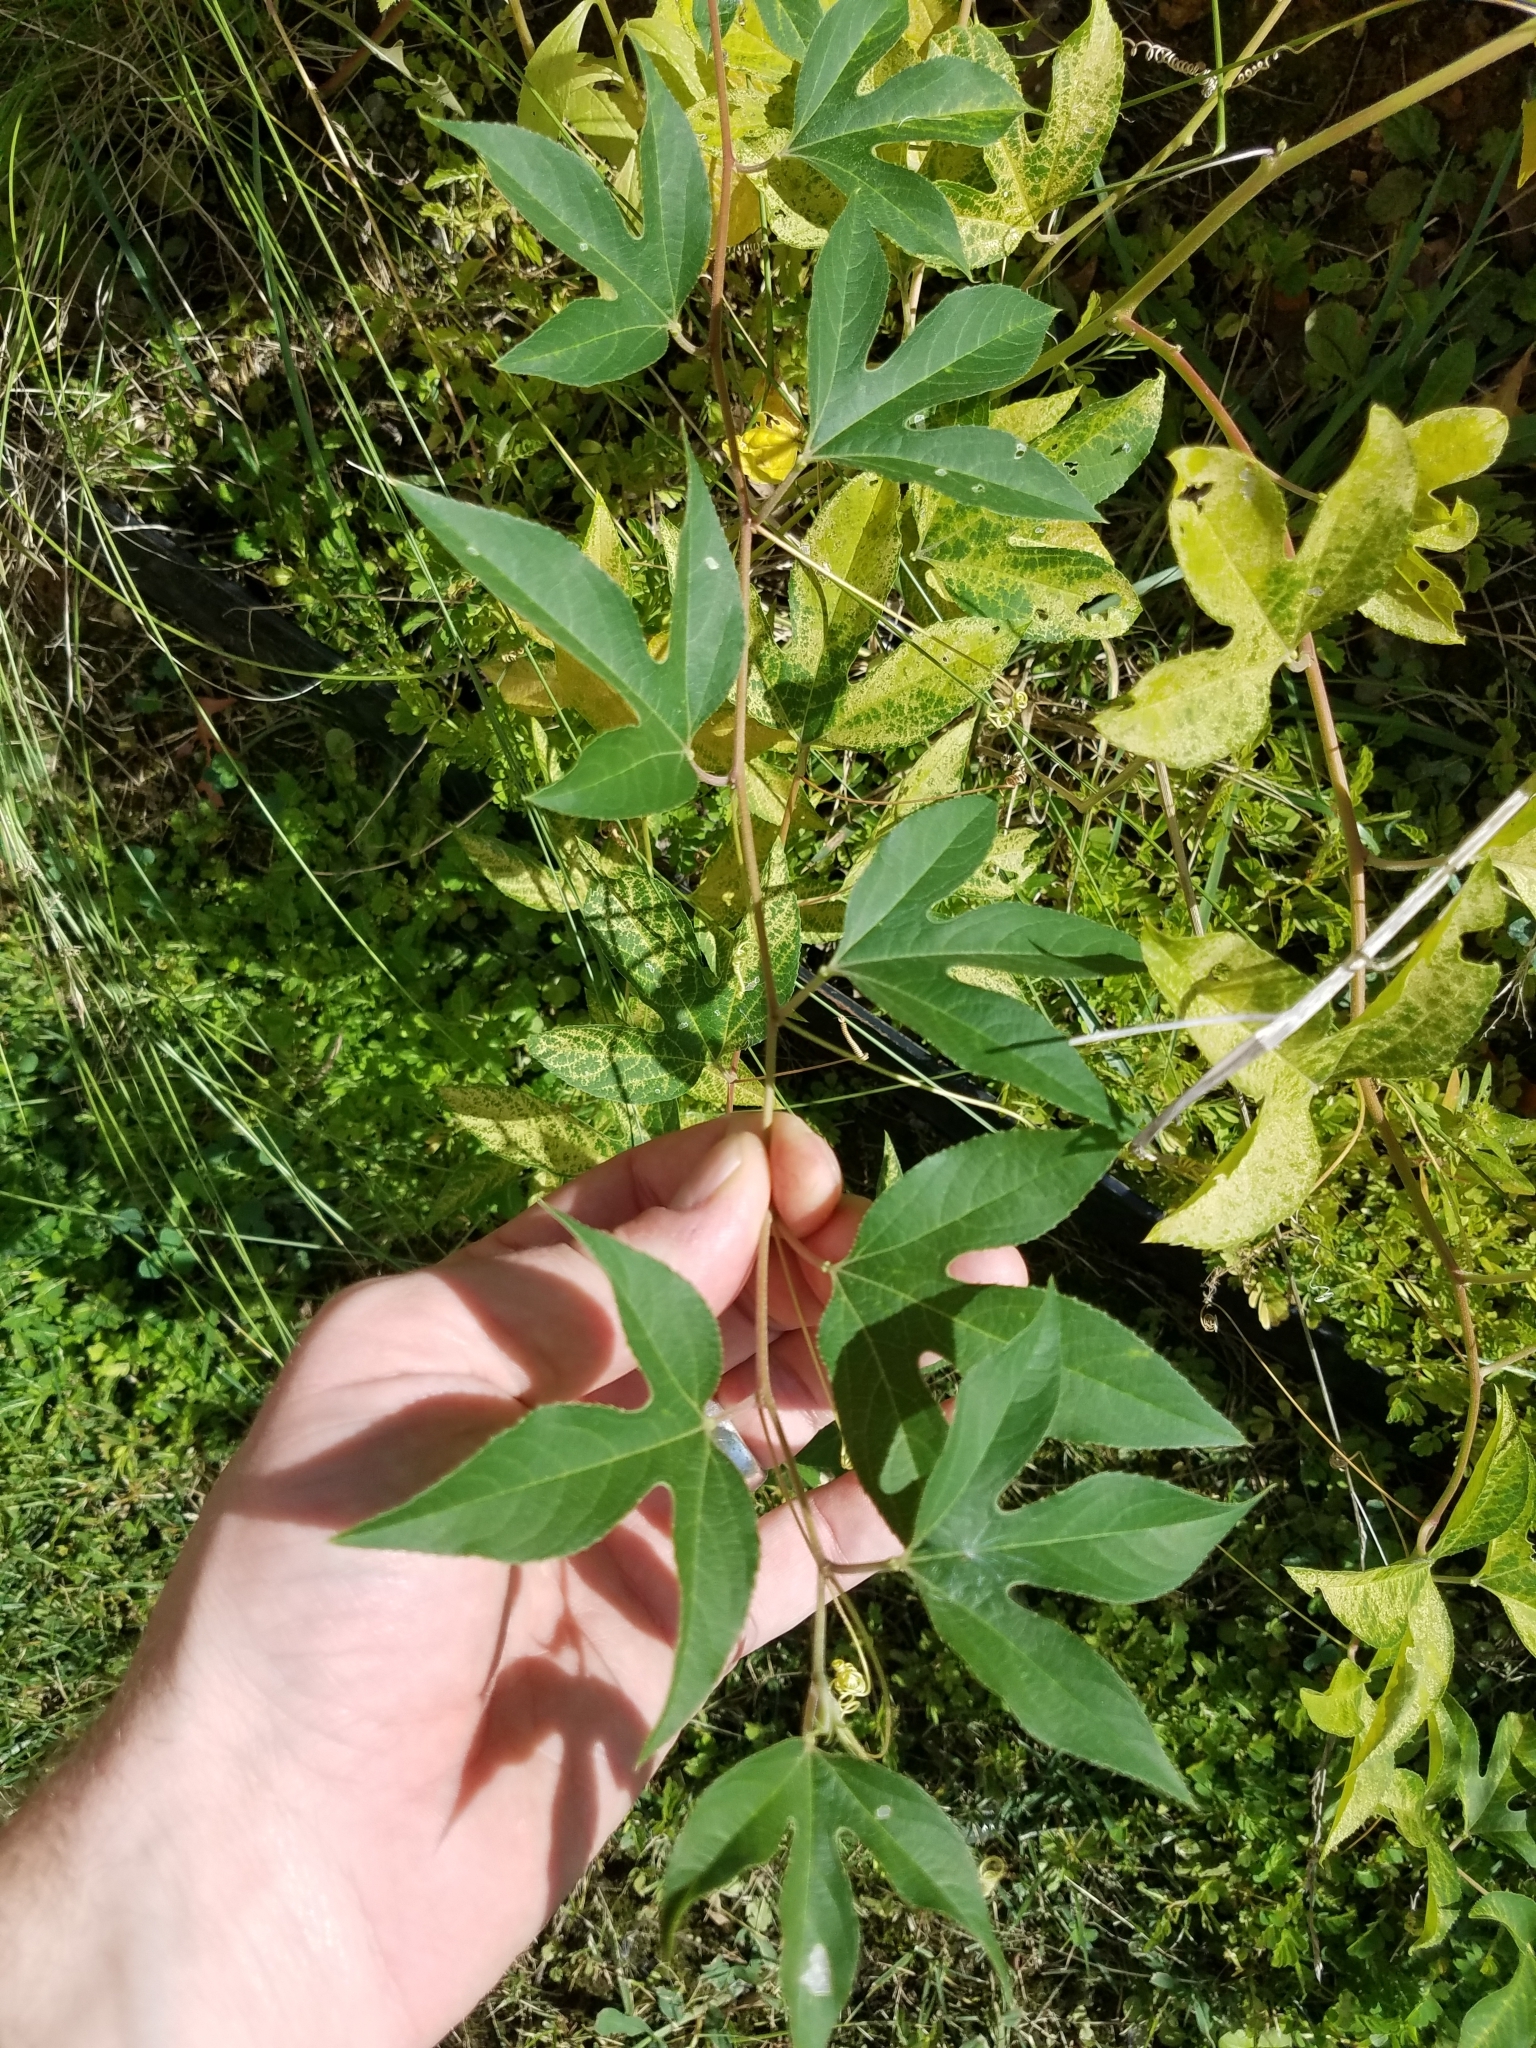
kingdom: Plantae
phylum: Tracheophyta
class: Magnoliopsida
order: Malpighiales
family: Passifloraceae
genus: Passiflora
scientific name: Passiflora incarnata
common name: Apricot-vine
